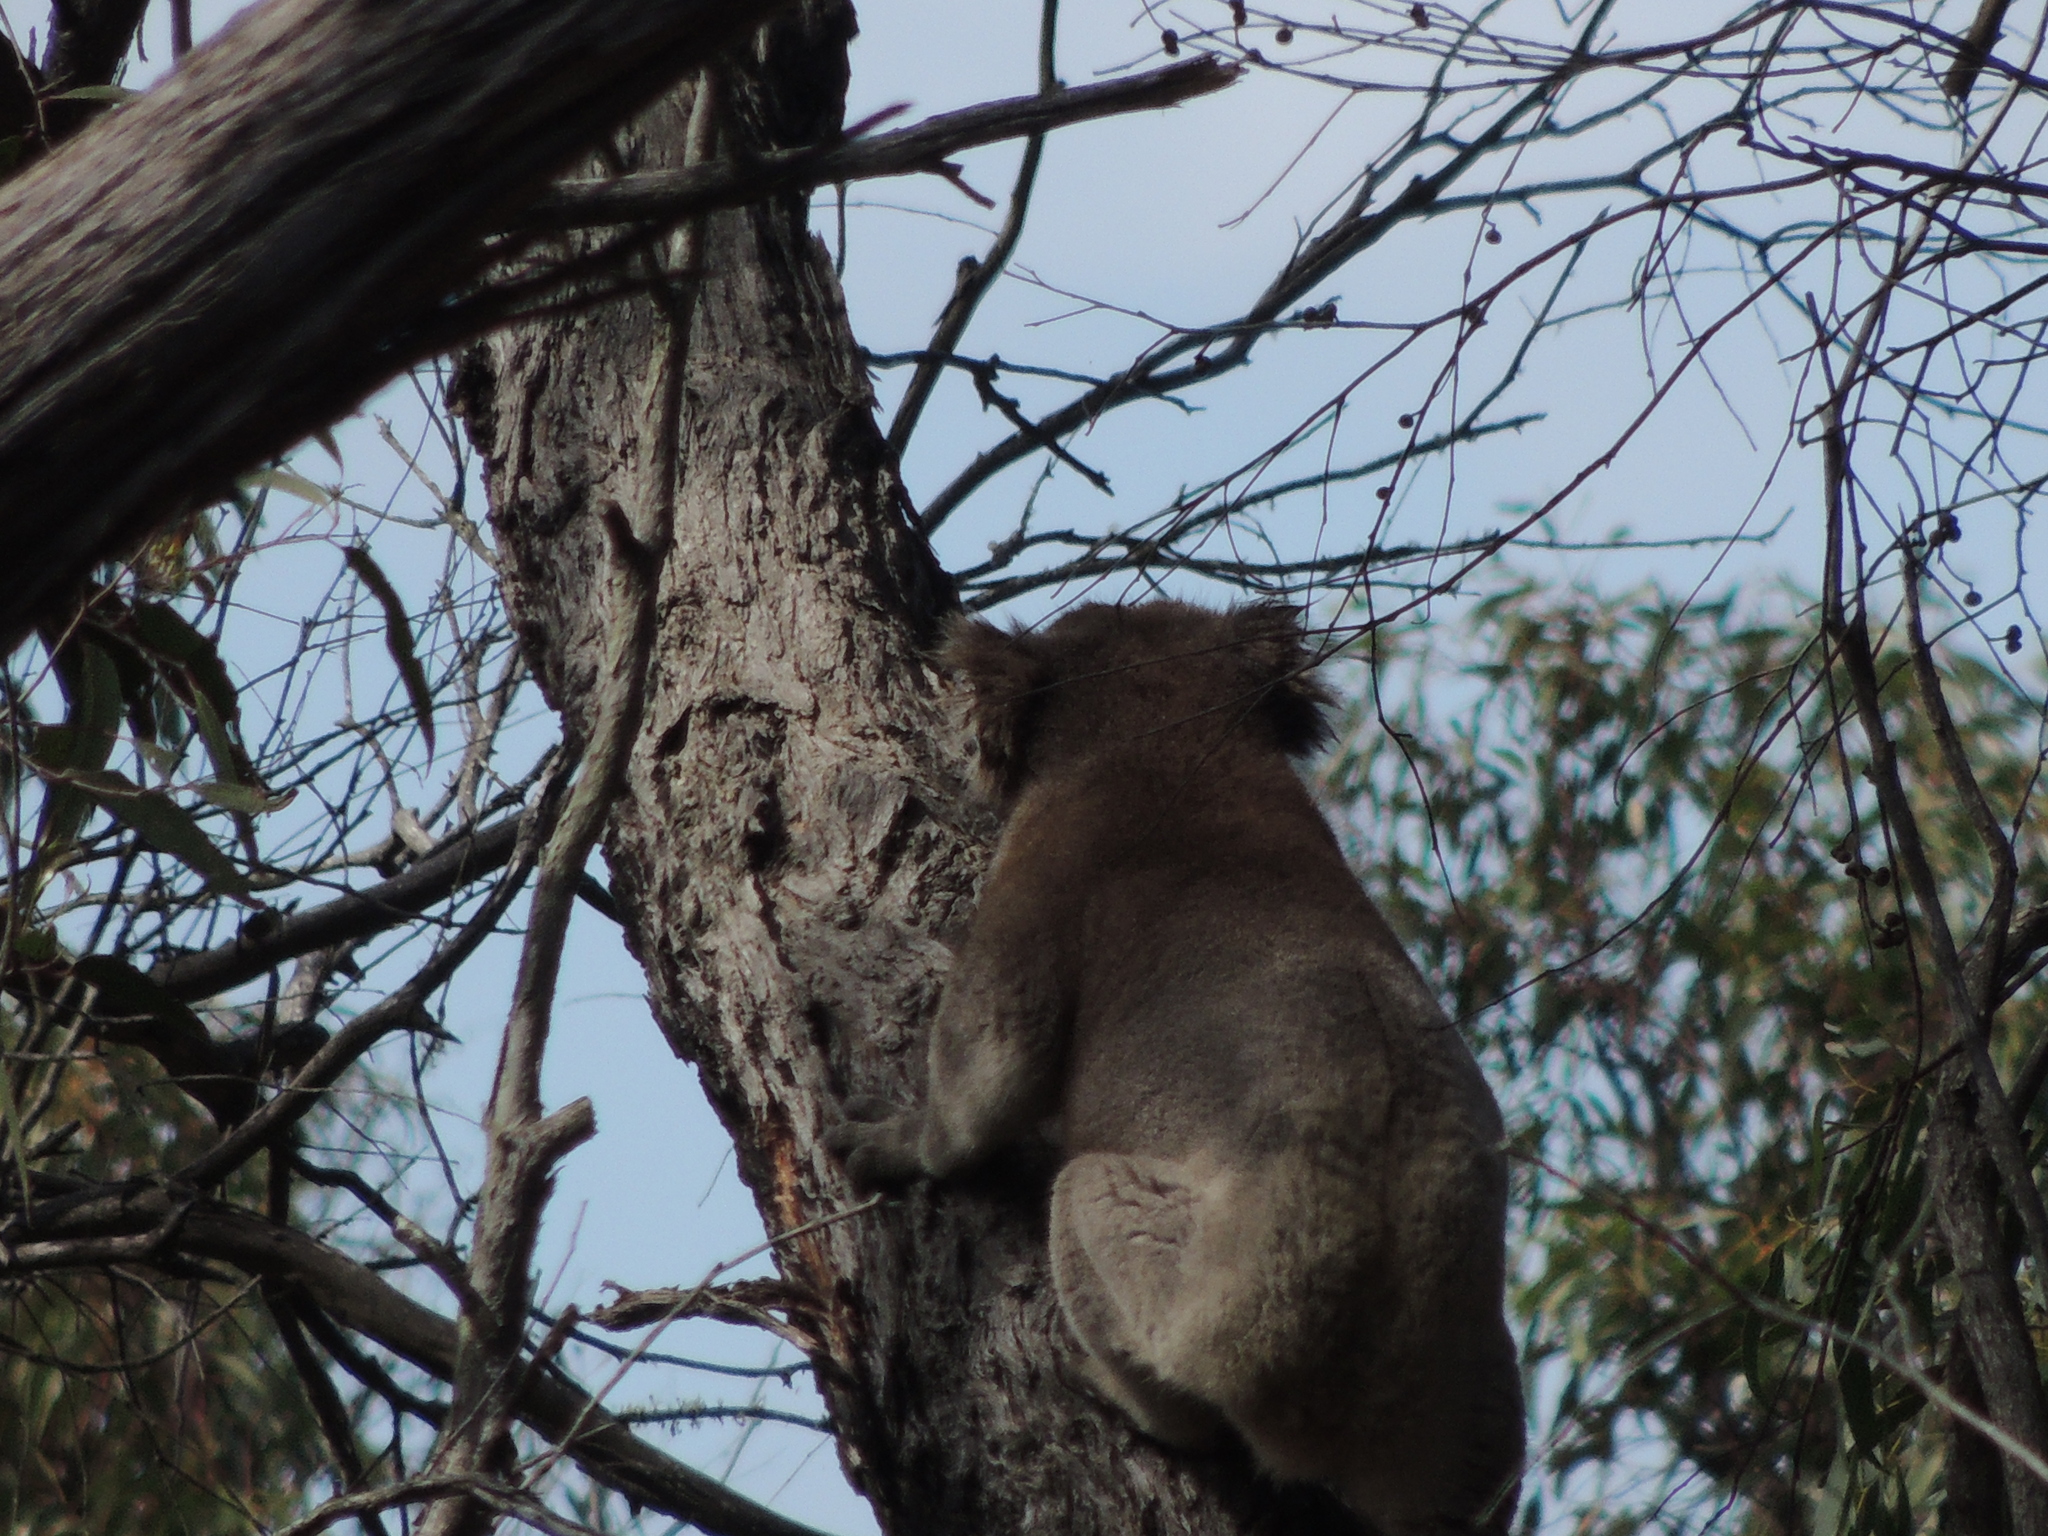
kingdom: Animalia
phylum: Chordata
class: Mammalia
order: Diprotodontia
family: Phascolarctidae
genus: Phascolarctos
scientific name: Phascolarctos cinereus
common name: Koala
